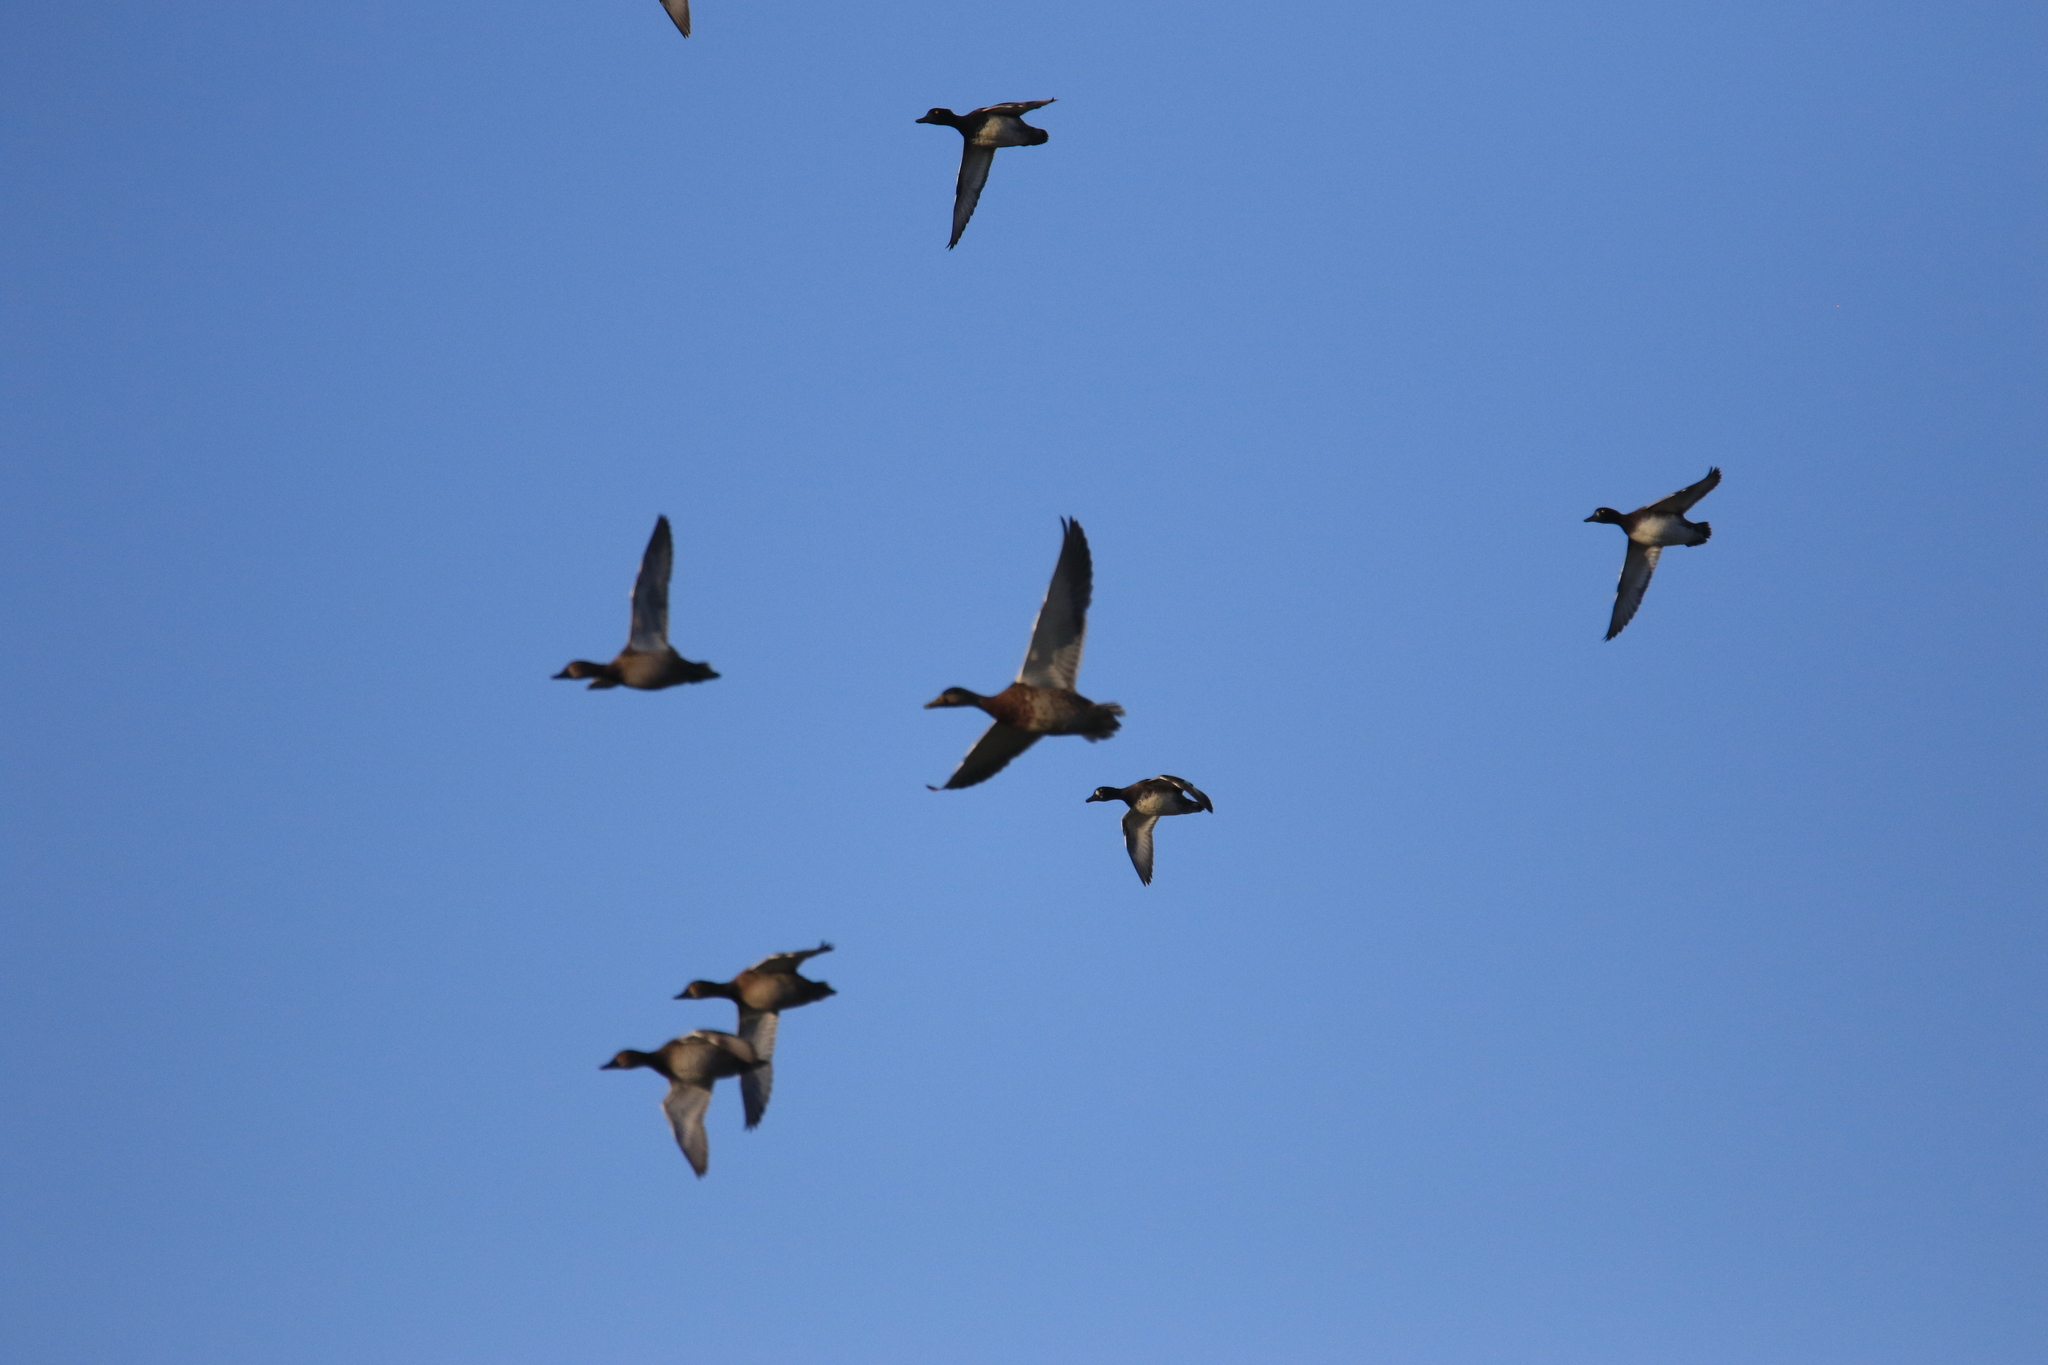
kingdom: Animalia
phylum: Chordata
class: Aves
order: Anseriformes
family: Anatidae
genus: Anas
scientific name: Anas crecca
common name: Eurasian teal
